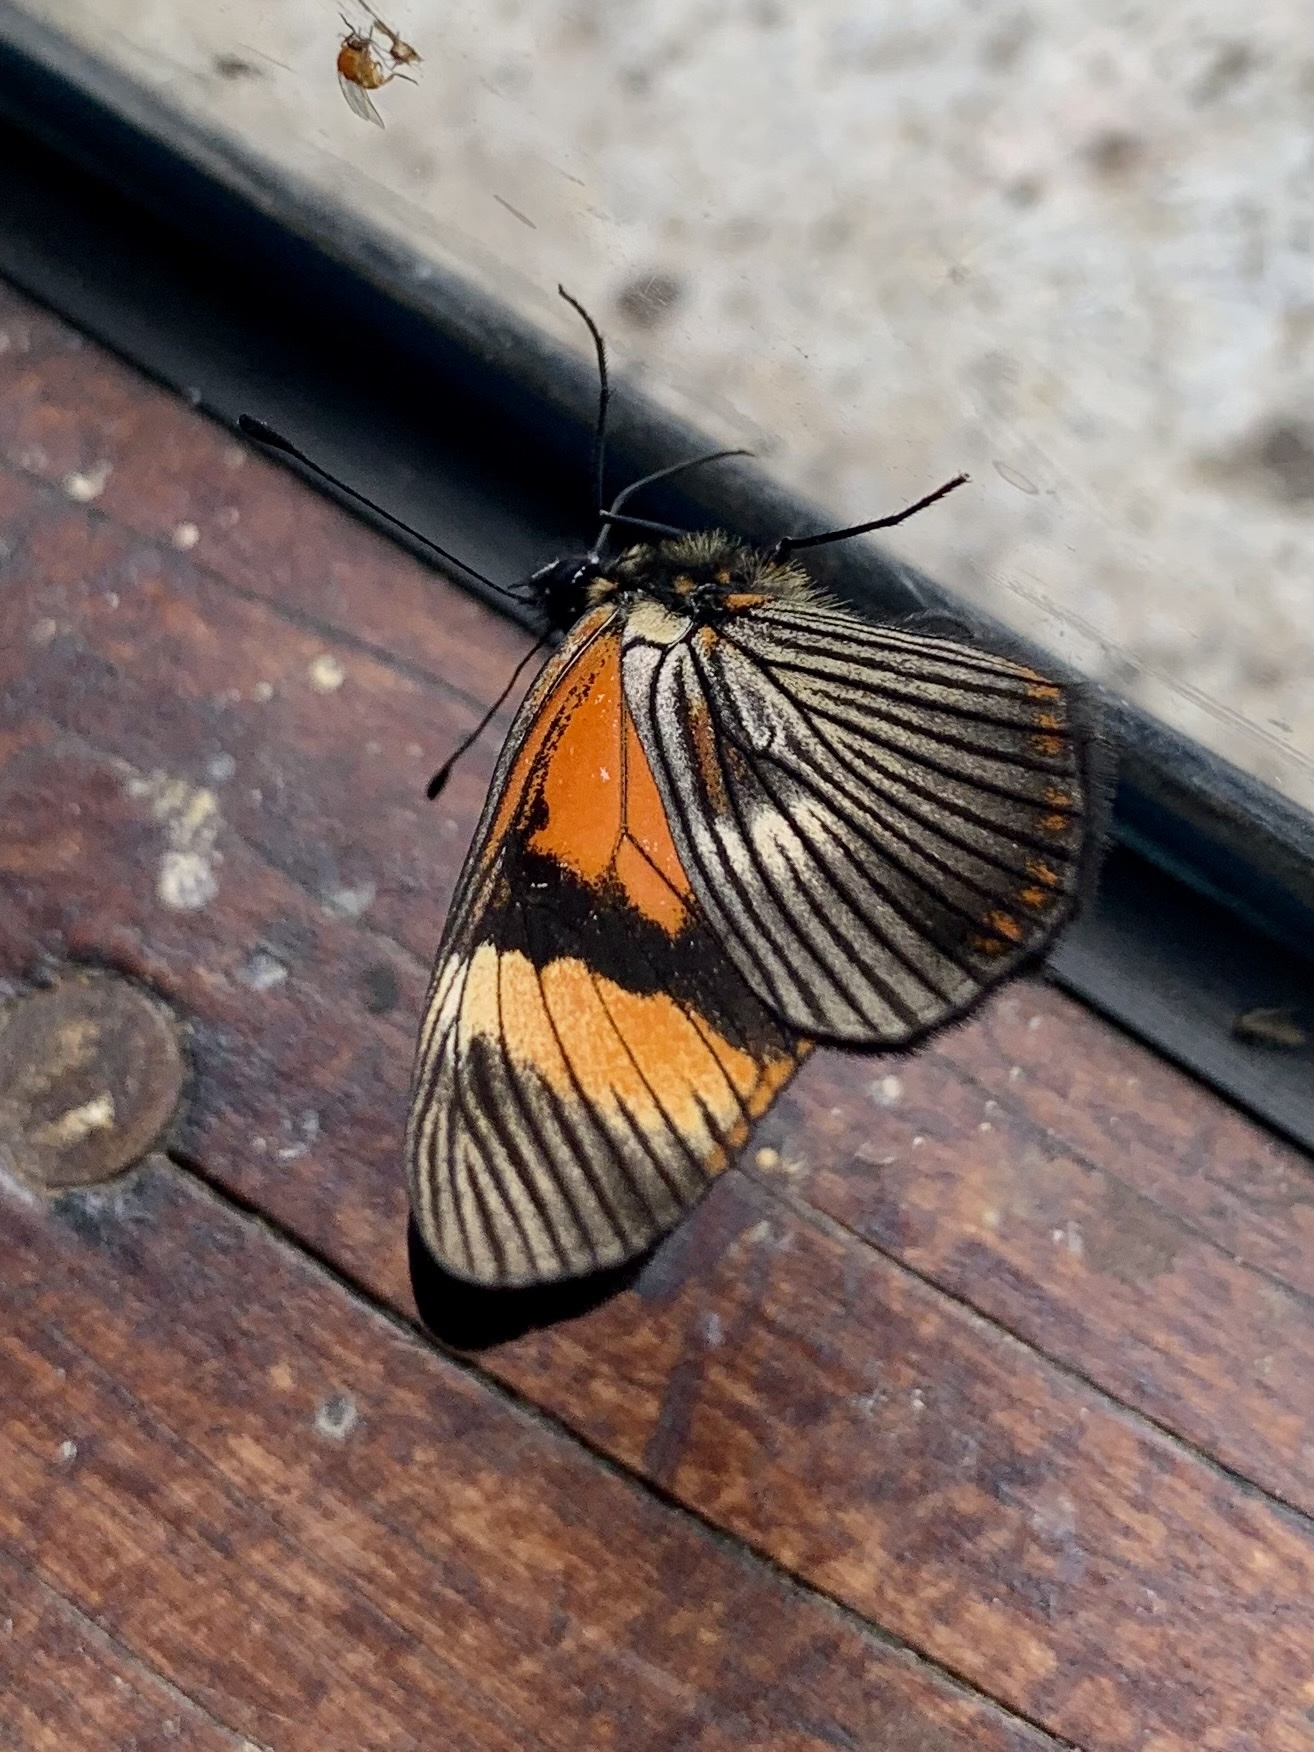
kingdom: Animalia
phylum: Arthropoda
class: Insecta
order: Lepidoptera
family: Nymphalidae
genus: Gnathotriche
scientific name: Gnathotriche mundina
